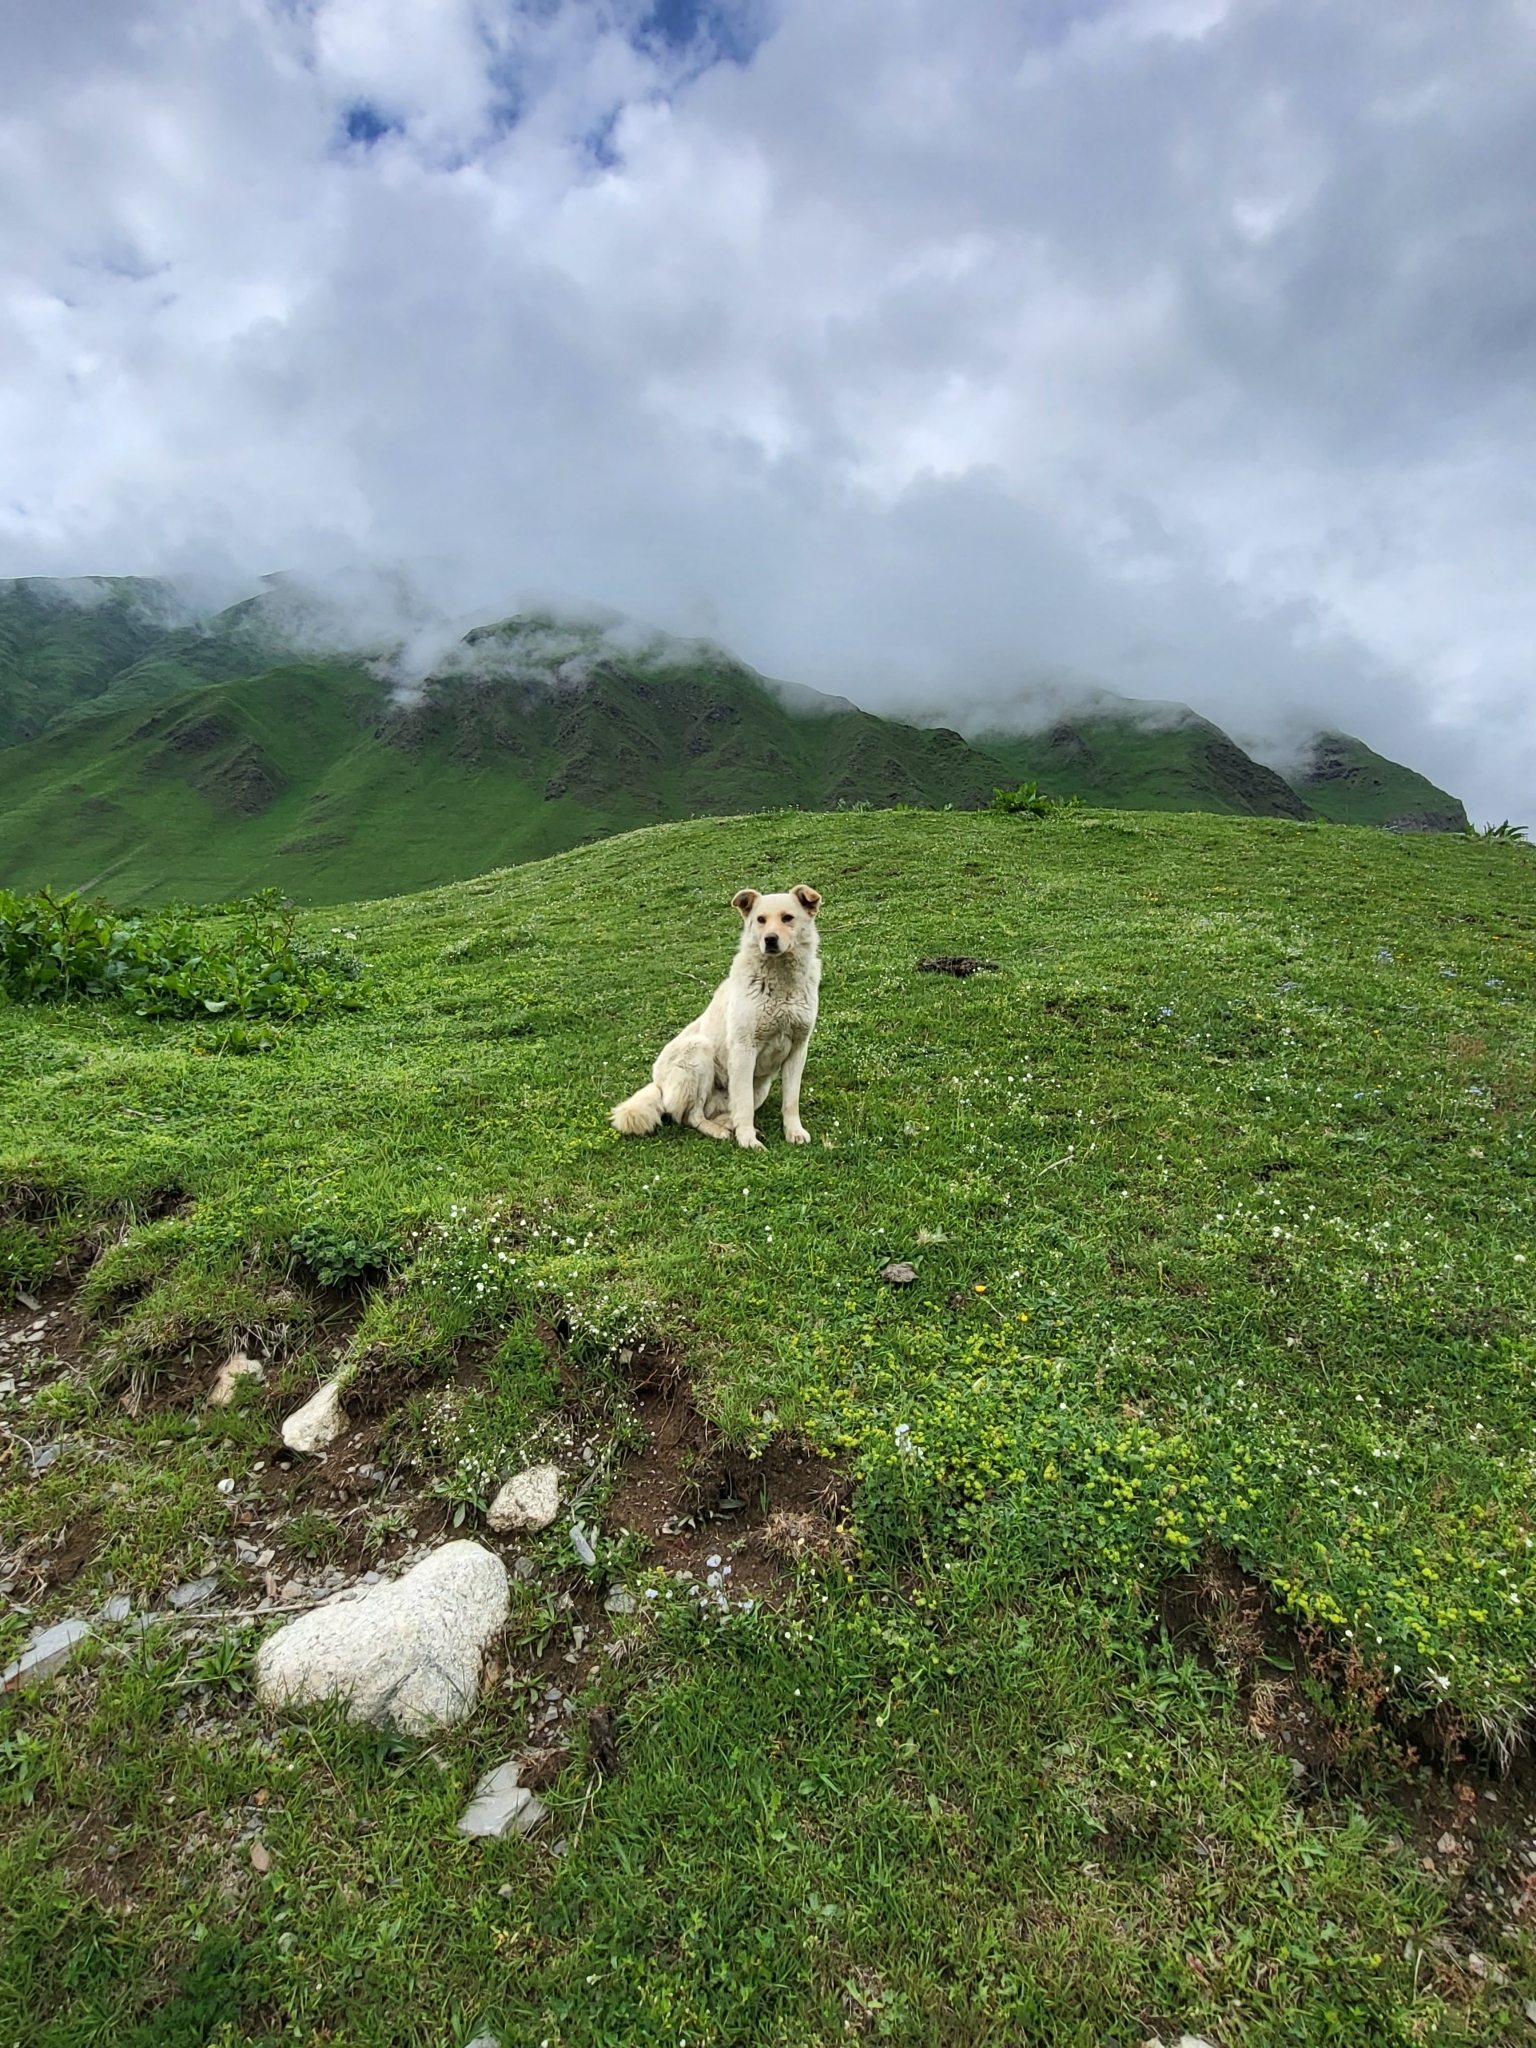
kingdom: Animalia
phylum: Chordata
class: Mammalia
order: Carnivora
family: Canidae
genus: Canis
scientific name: Canis lupus
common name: Gray wolf
